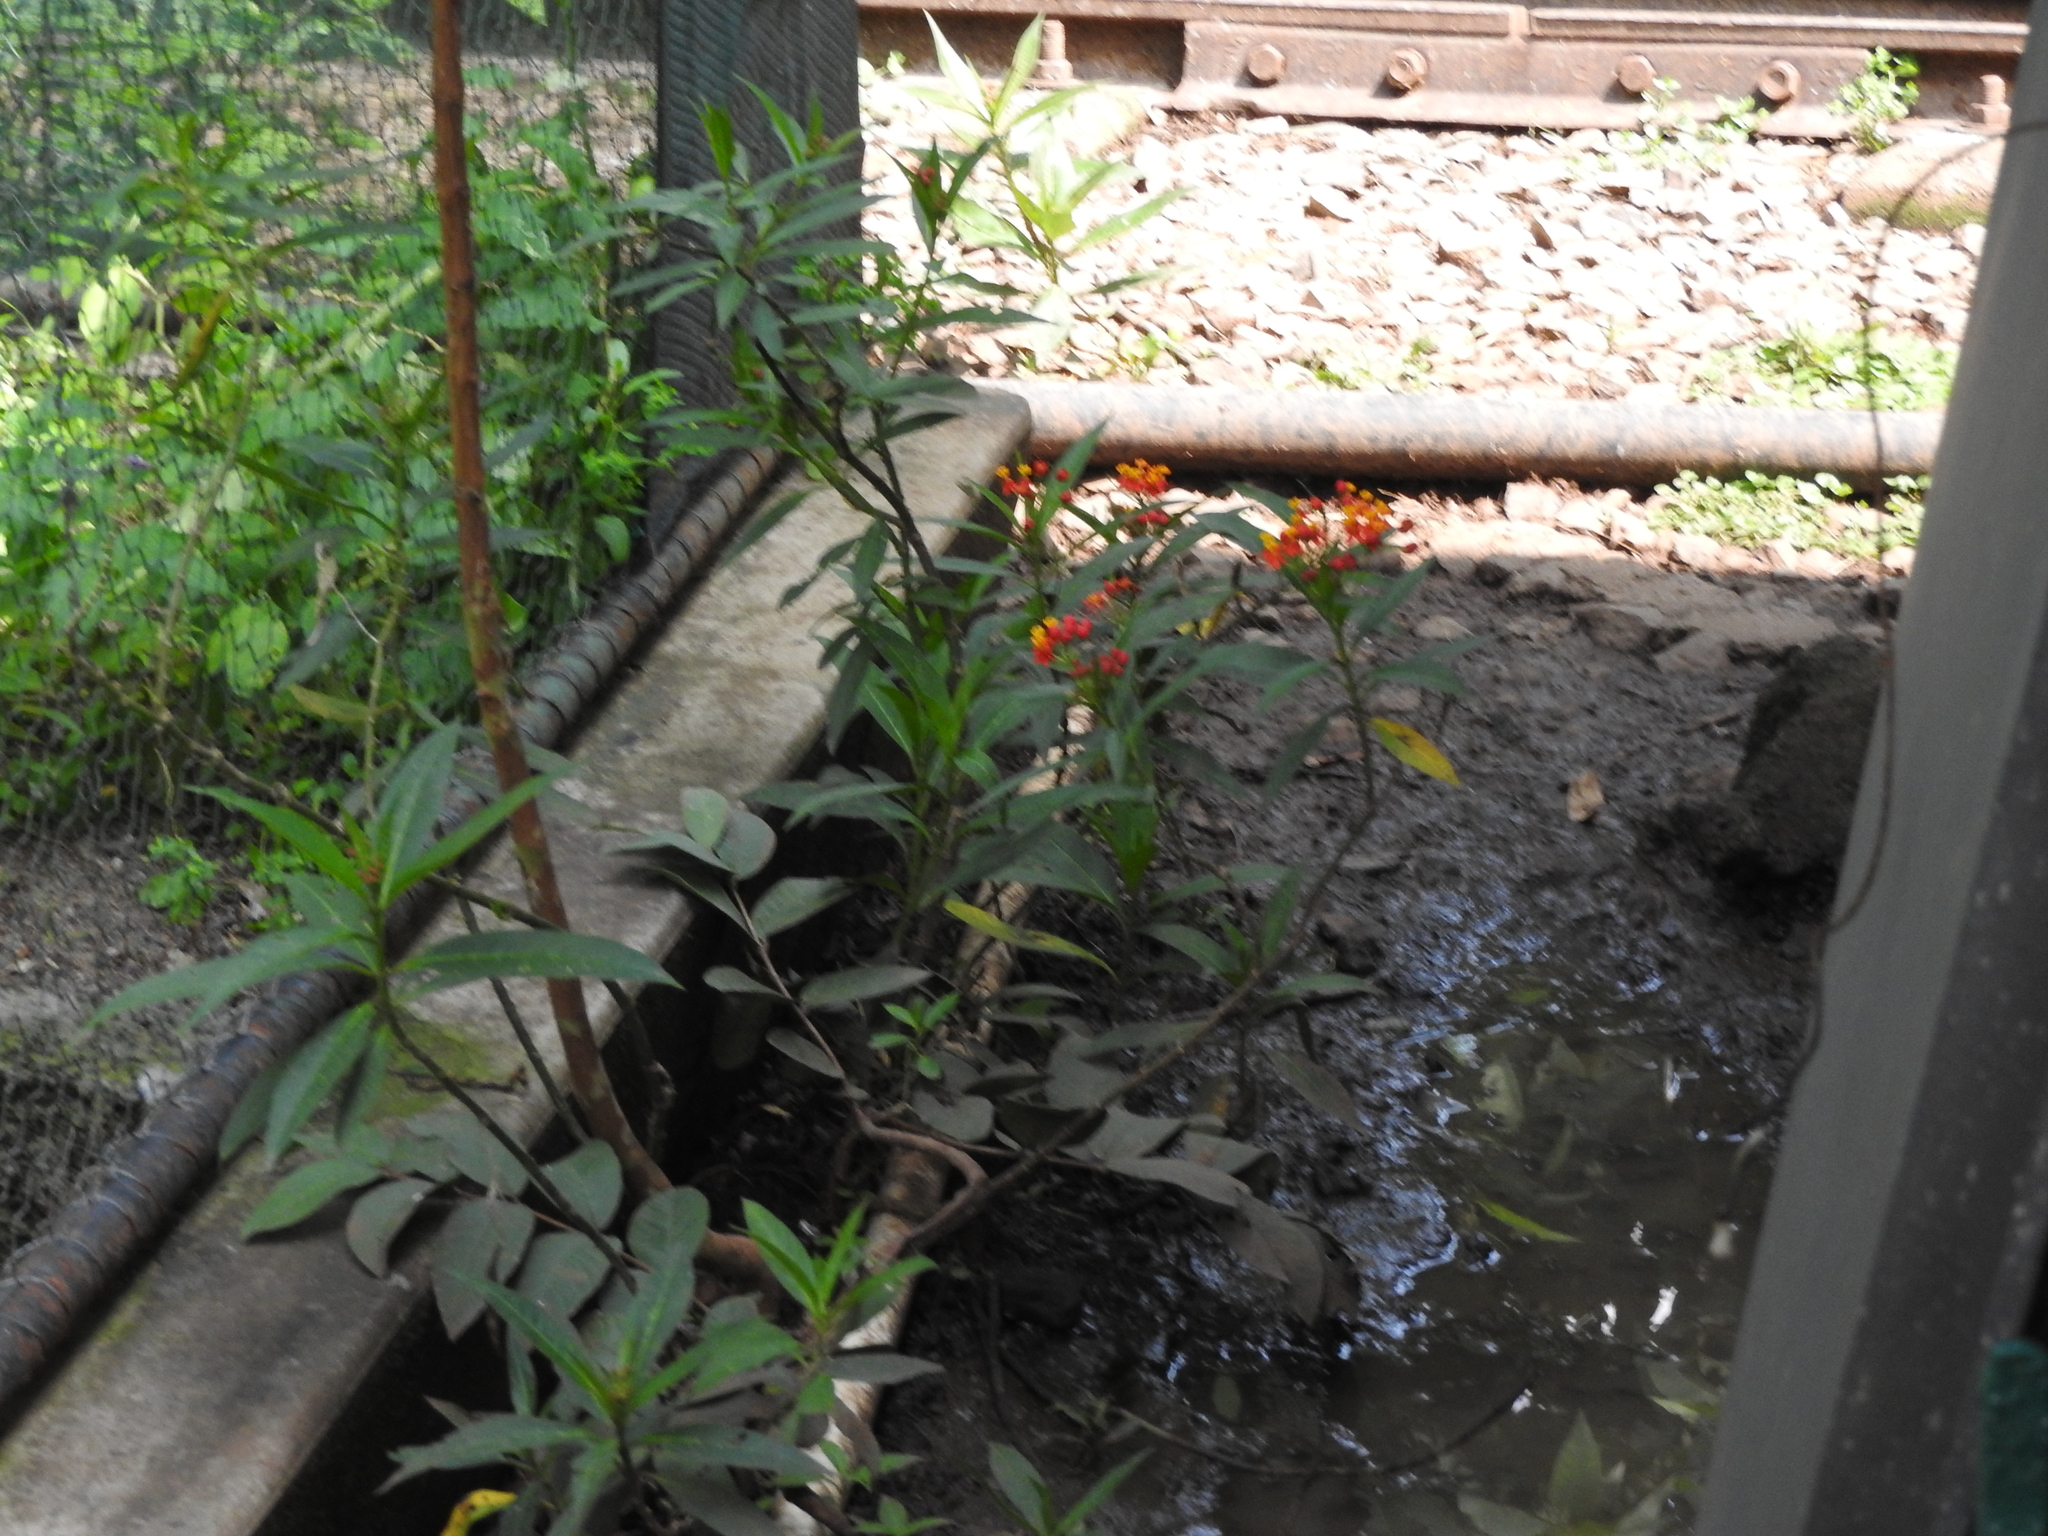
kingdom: Plantae
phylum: Tracheophyta
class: Magnoliopsida
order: Gentianales
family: Apocynaceae
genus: Asclepias
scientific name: Asclepias curassavica
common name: Bloodflower
